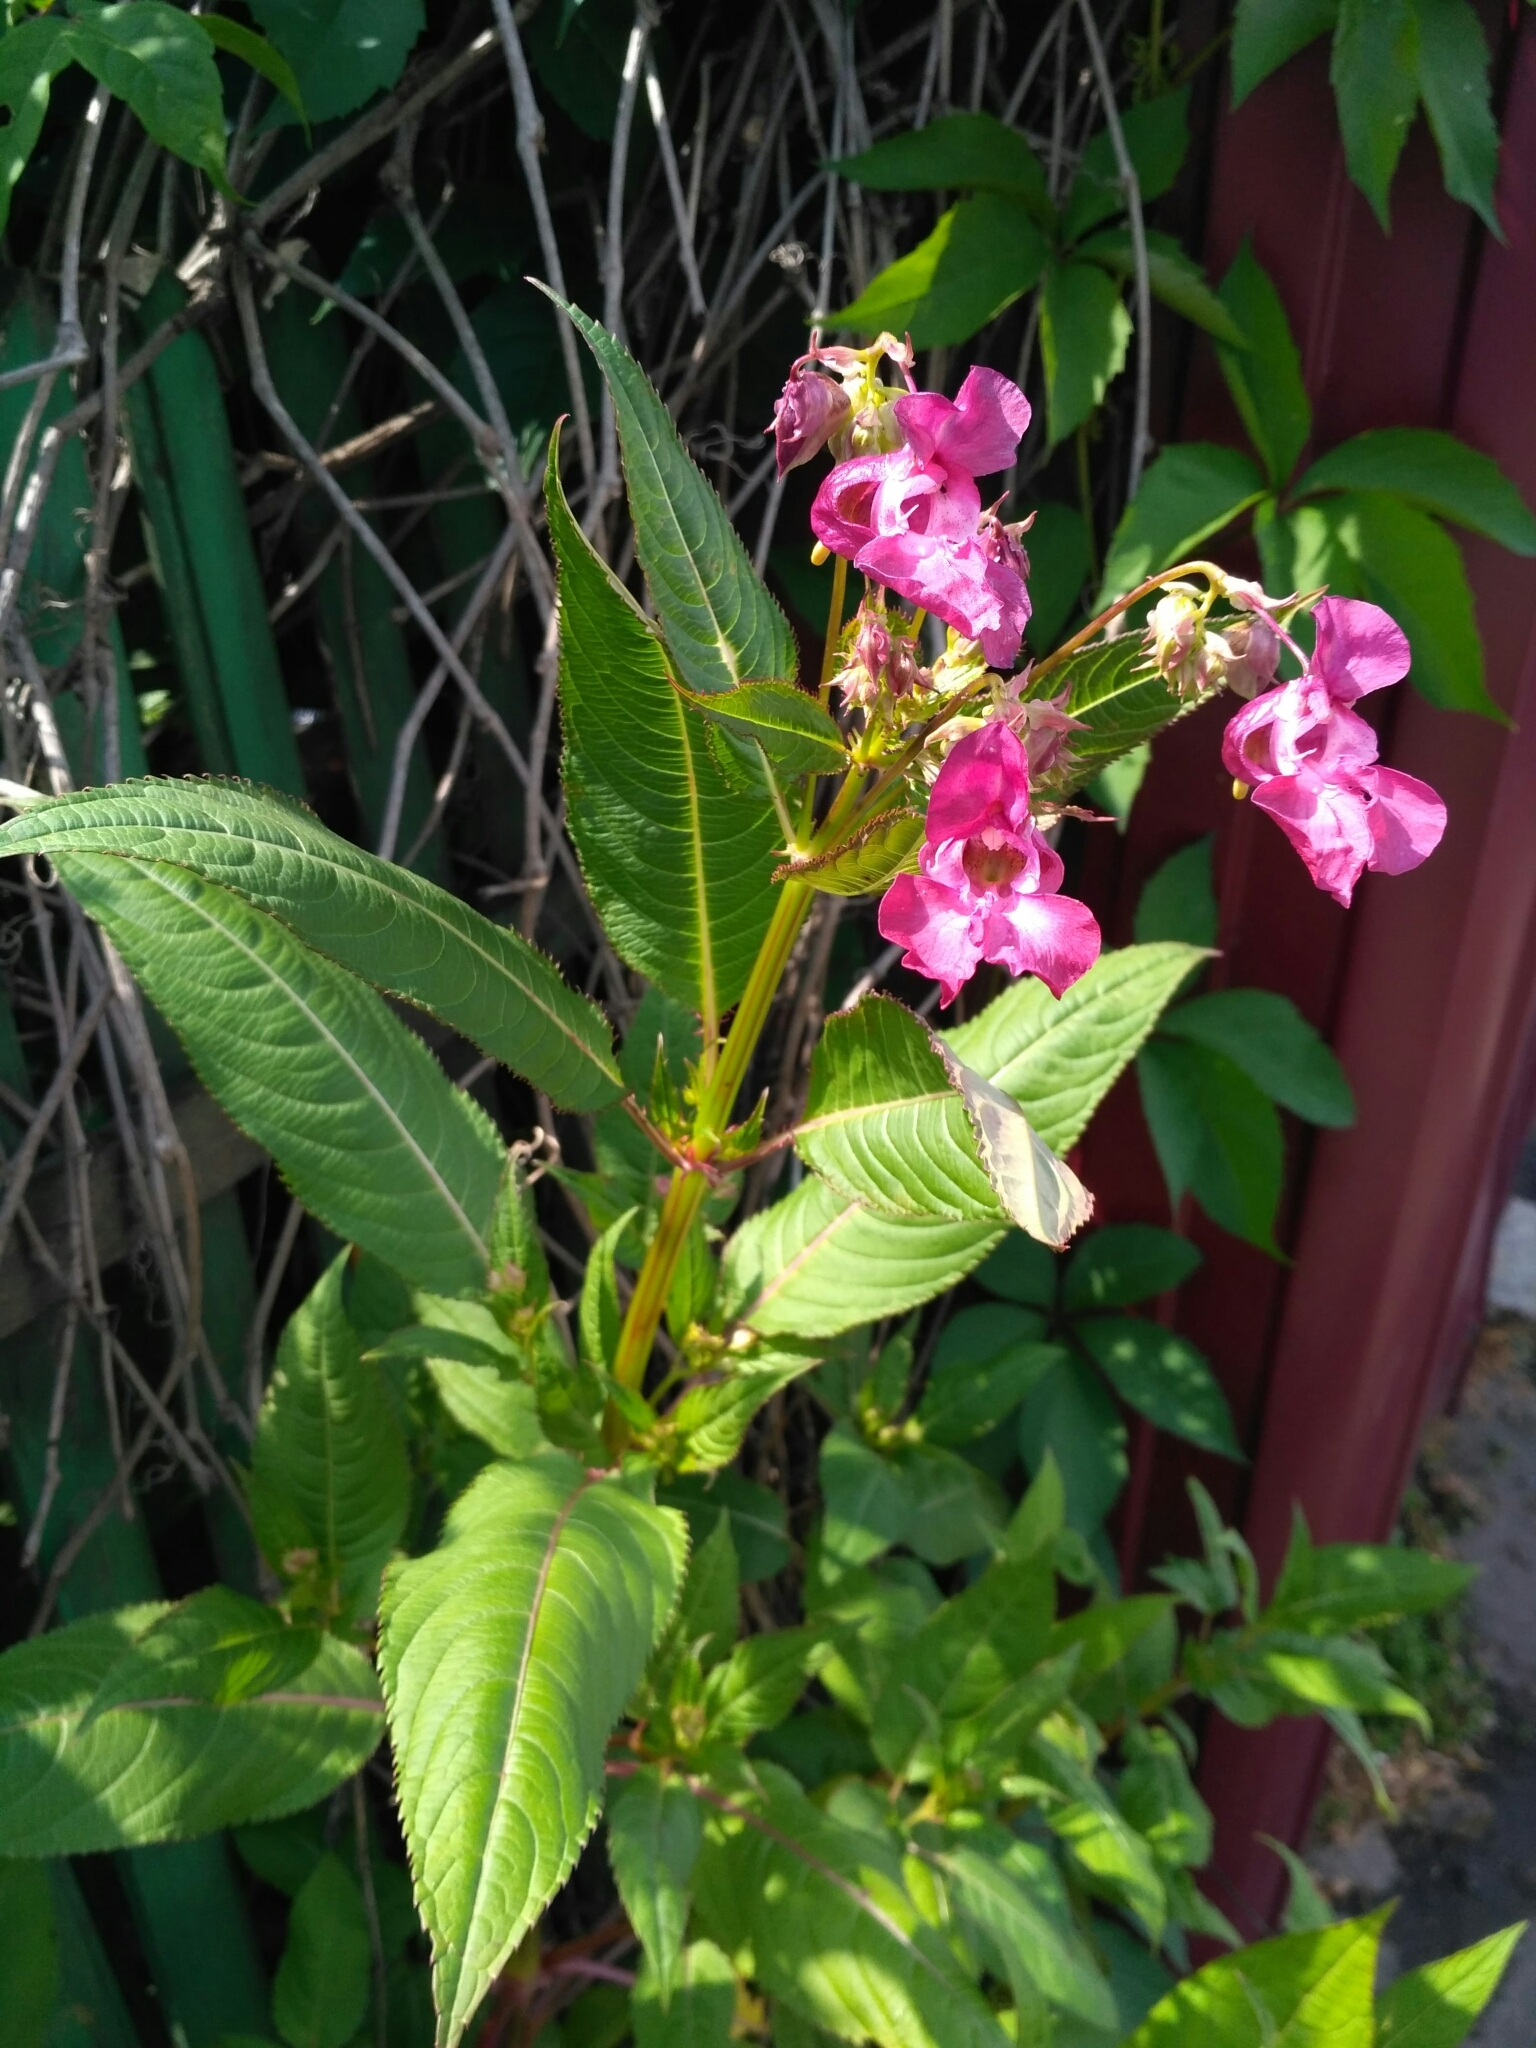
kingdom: Plantae
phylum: Tracheophyta
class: Magnoliopsida
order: Ericales
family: Balsaminaceae
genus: Impatiens
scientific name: Impatiens glandulifera
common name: Himalayan balsam
